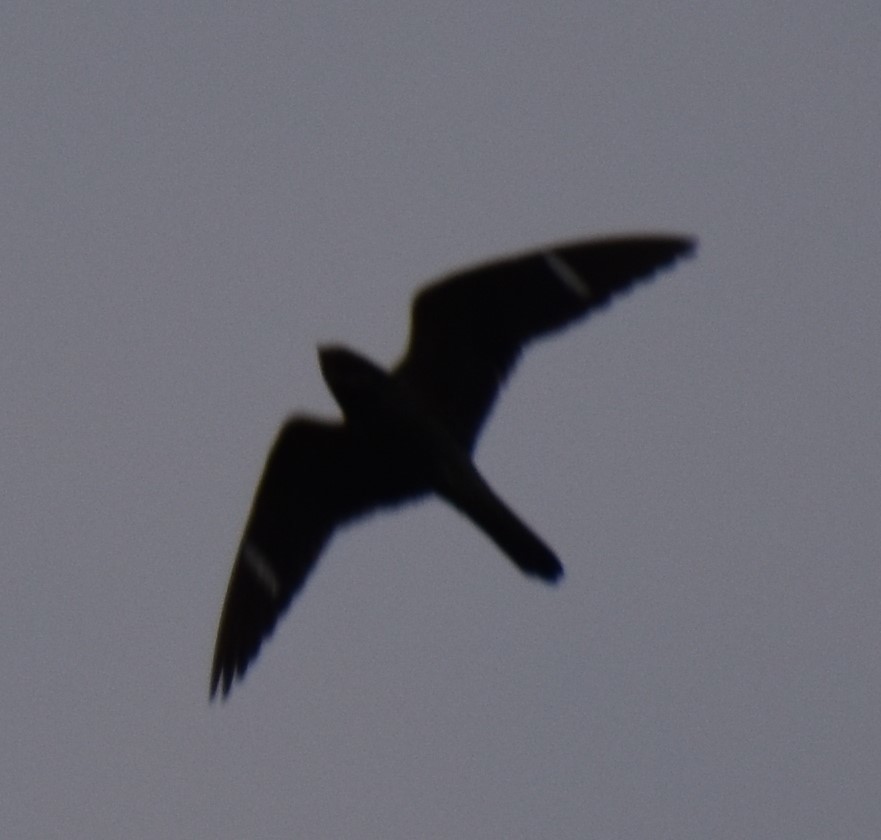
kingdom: Animalia
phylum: Chordata
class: Aves
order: Caprimulgiformes
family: Caprimulgidae
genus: Chordeiles
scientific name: Chordeiles minor
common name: Common nighthawk
